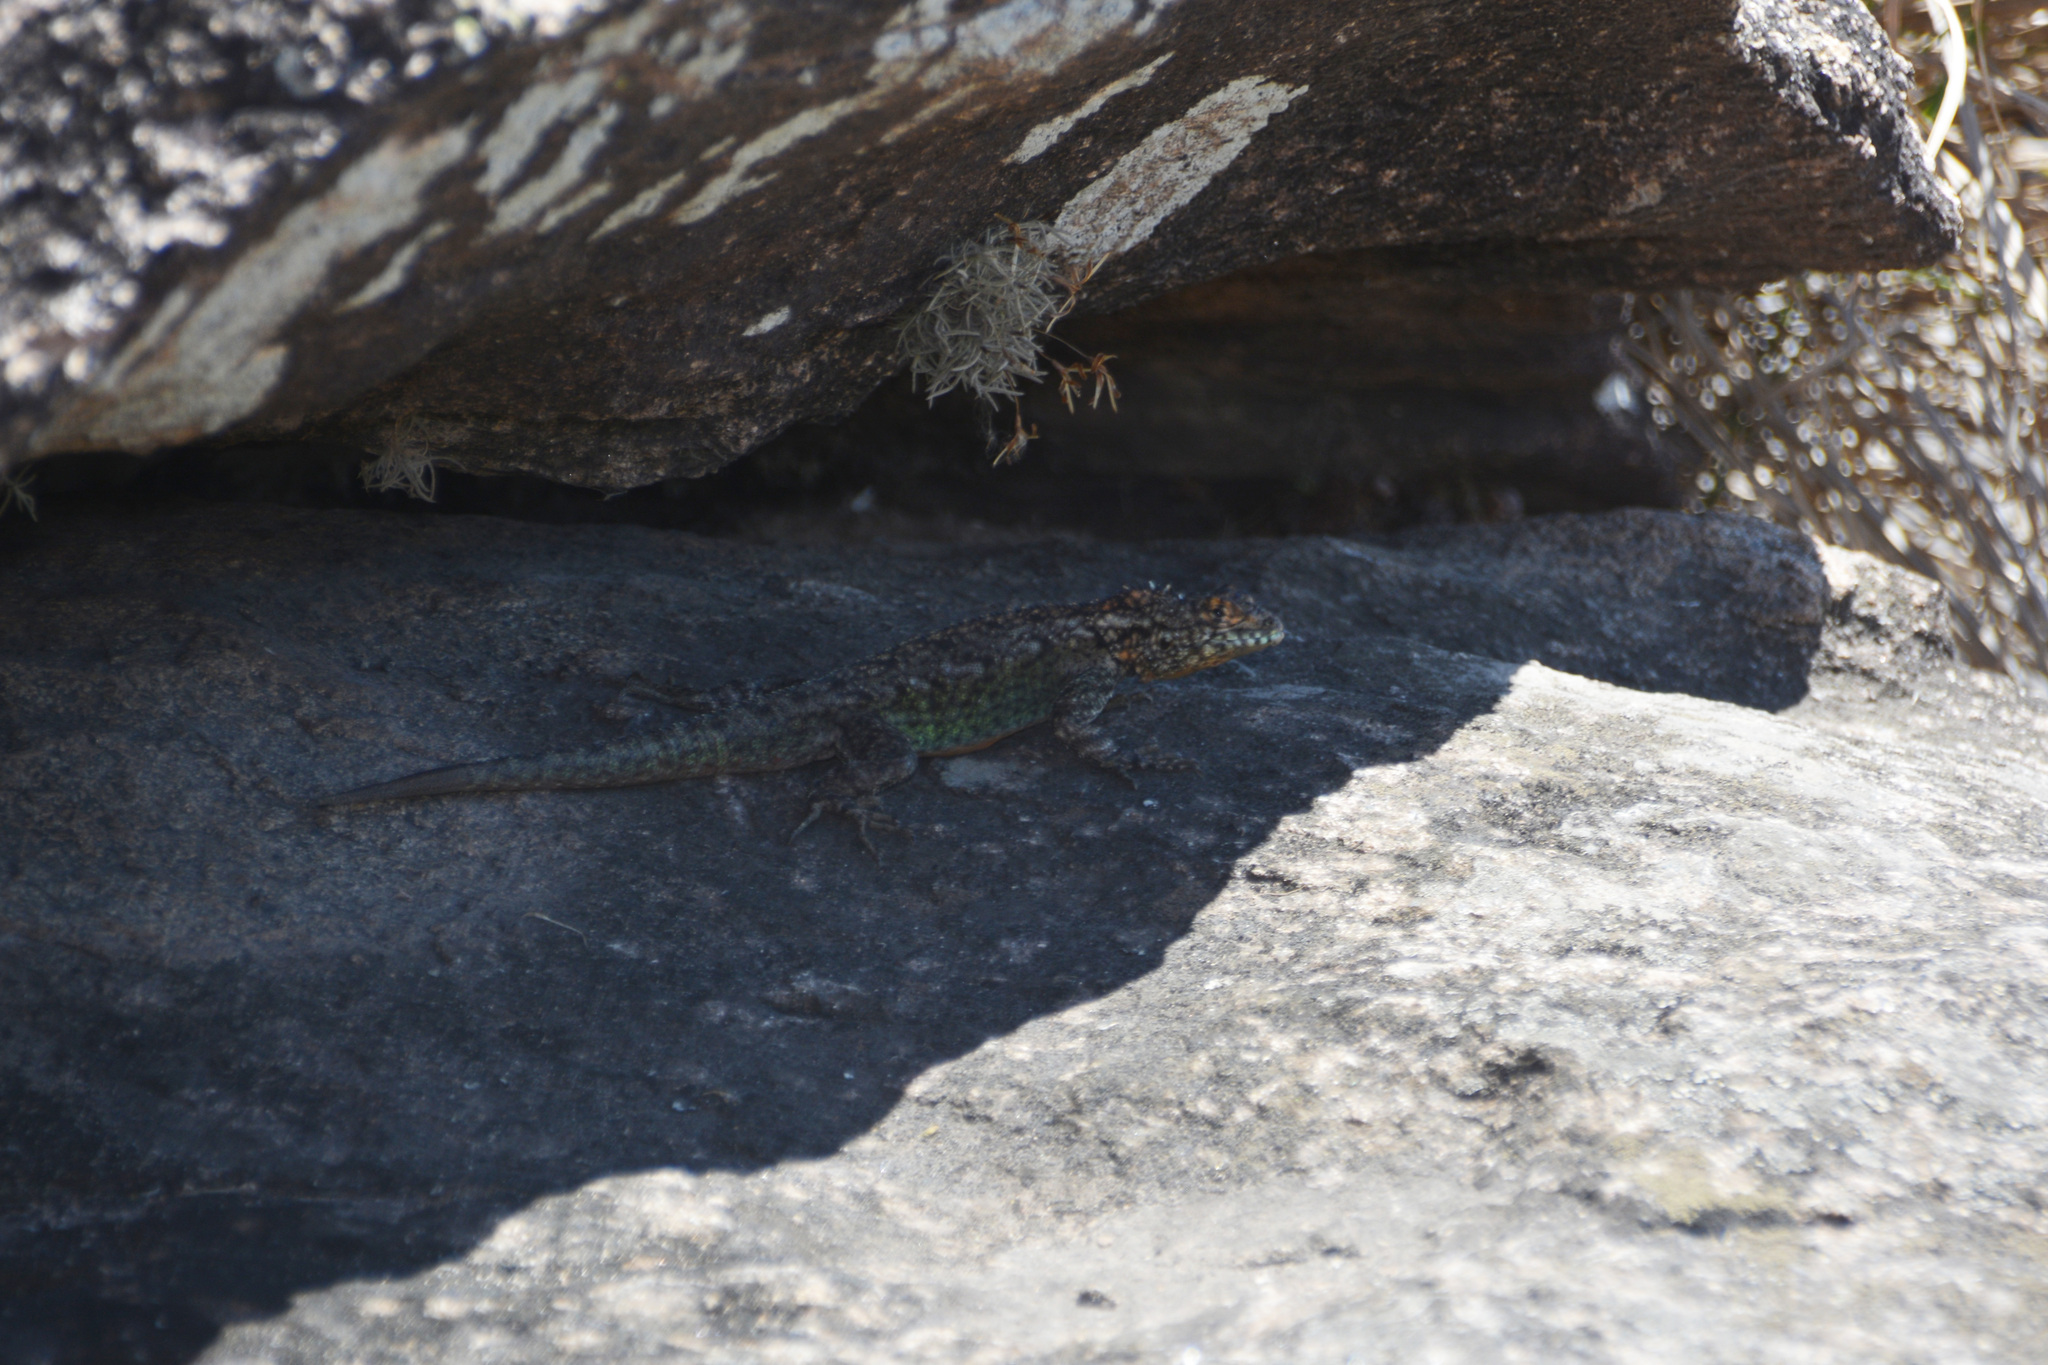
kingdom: Animalia
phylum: Chordata
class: Squamata
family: Tropiduridae
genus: Tropidurus
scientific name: Tropidurus spinulosus
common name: Spiny lava lizard
